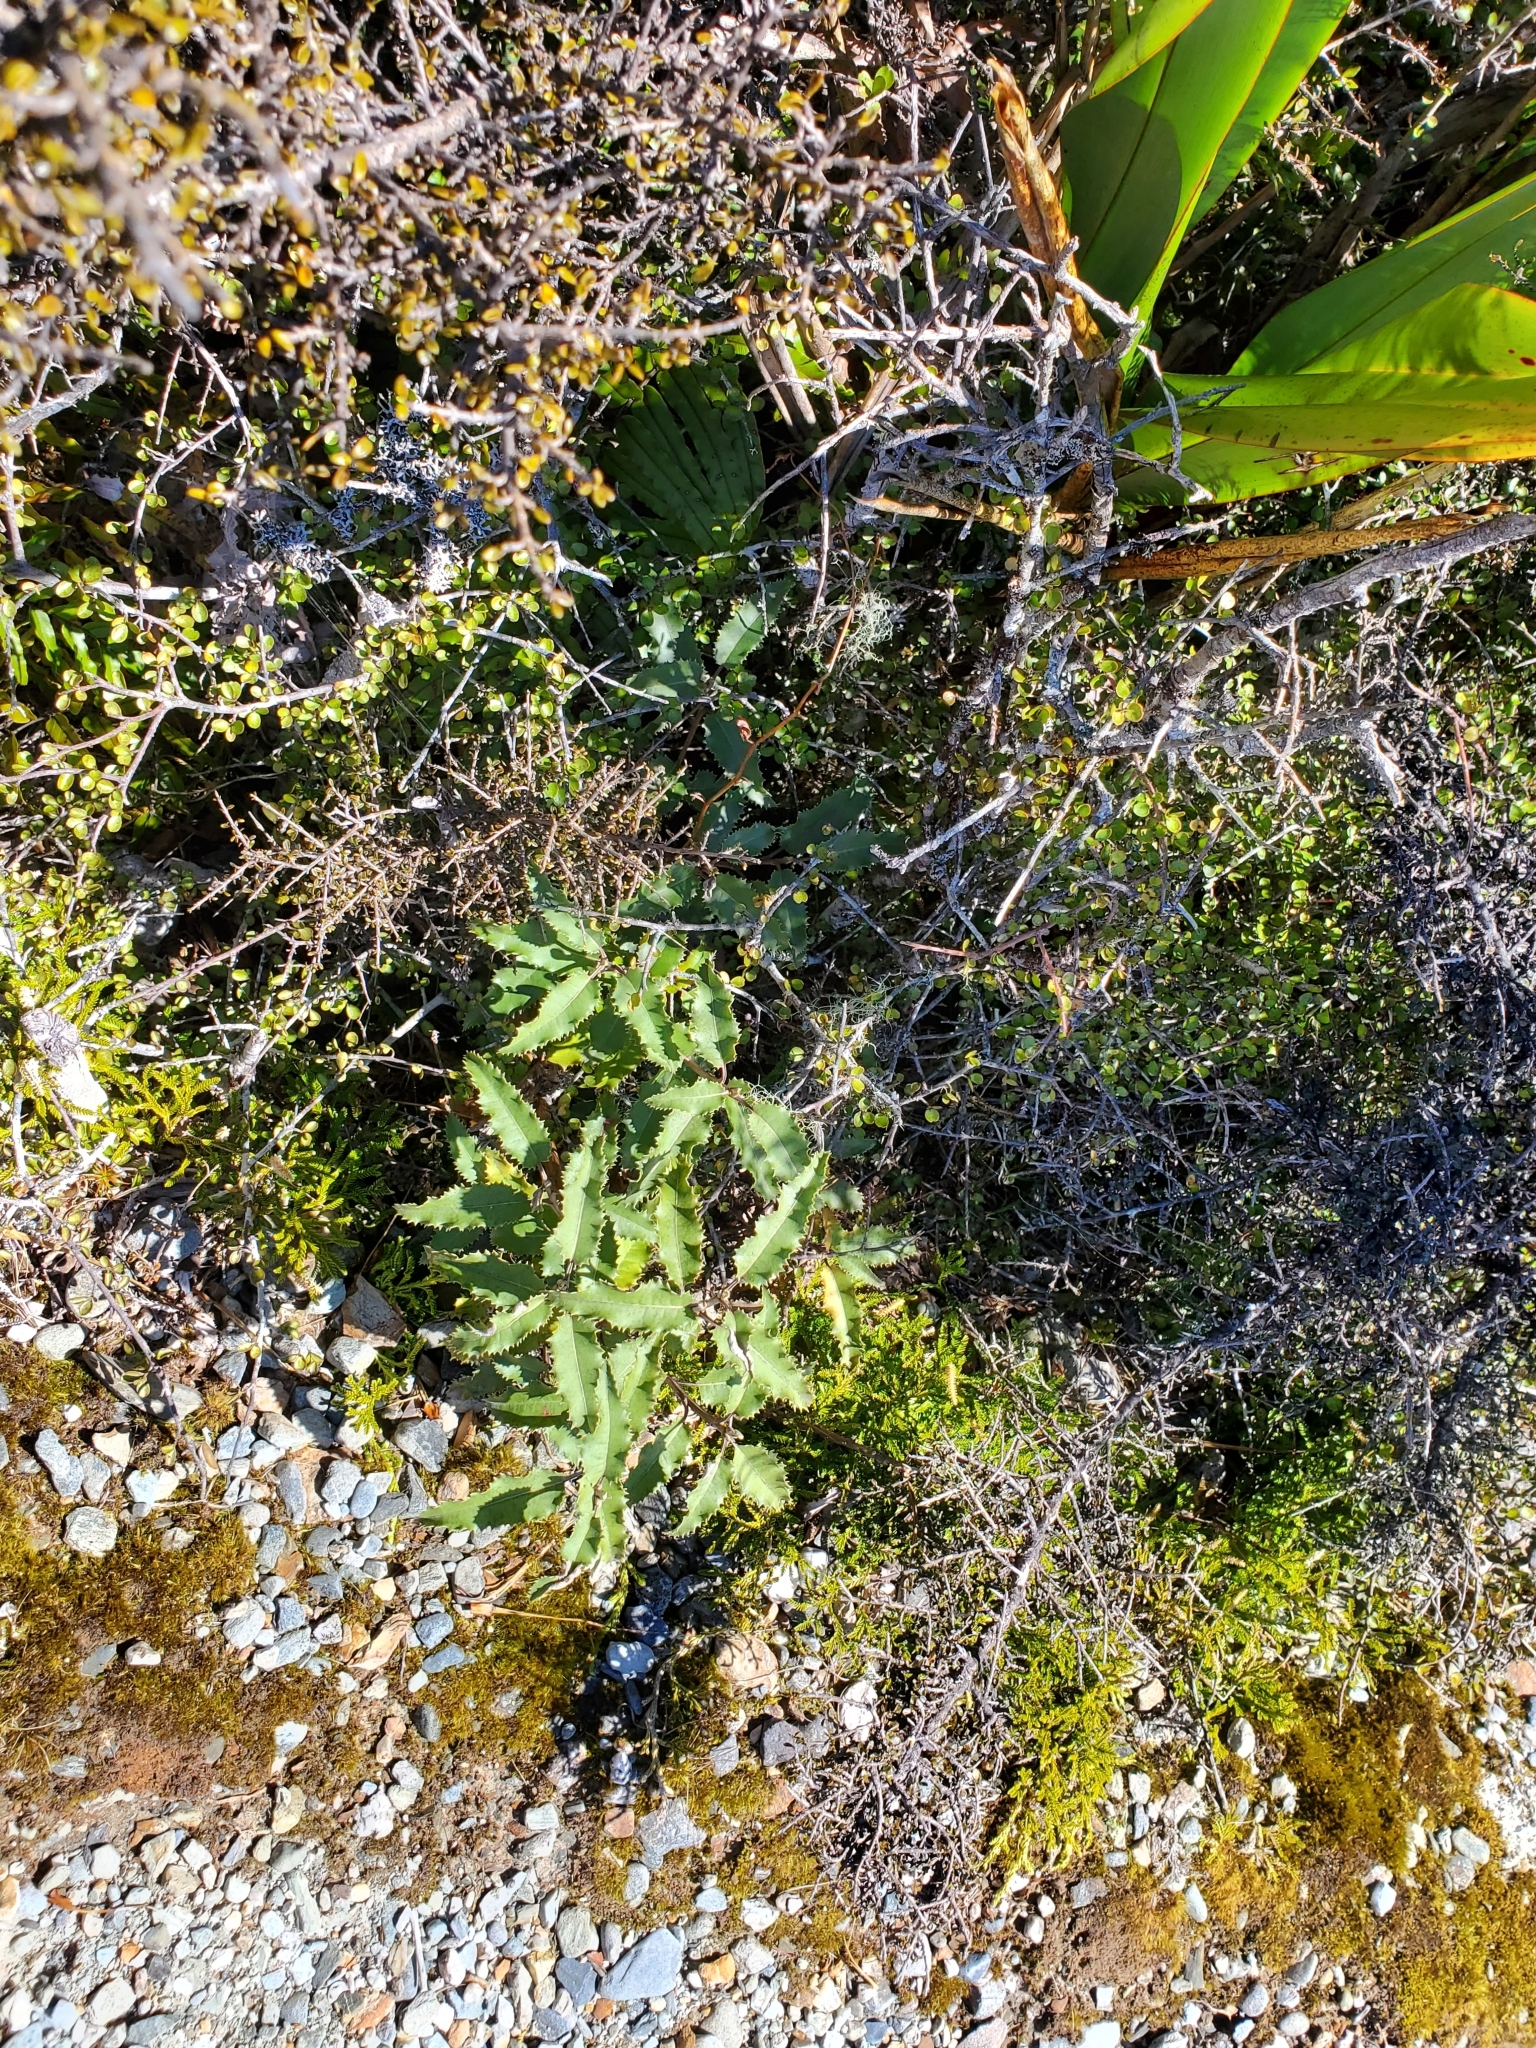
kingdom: Plantae
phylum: Tracheophyta
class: Magnoliopsida
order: Asterales
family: Asteraceae
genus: Olearia
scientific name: Olearia ilicifolia
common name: Maori-holly
